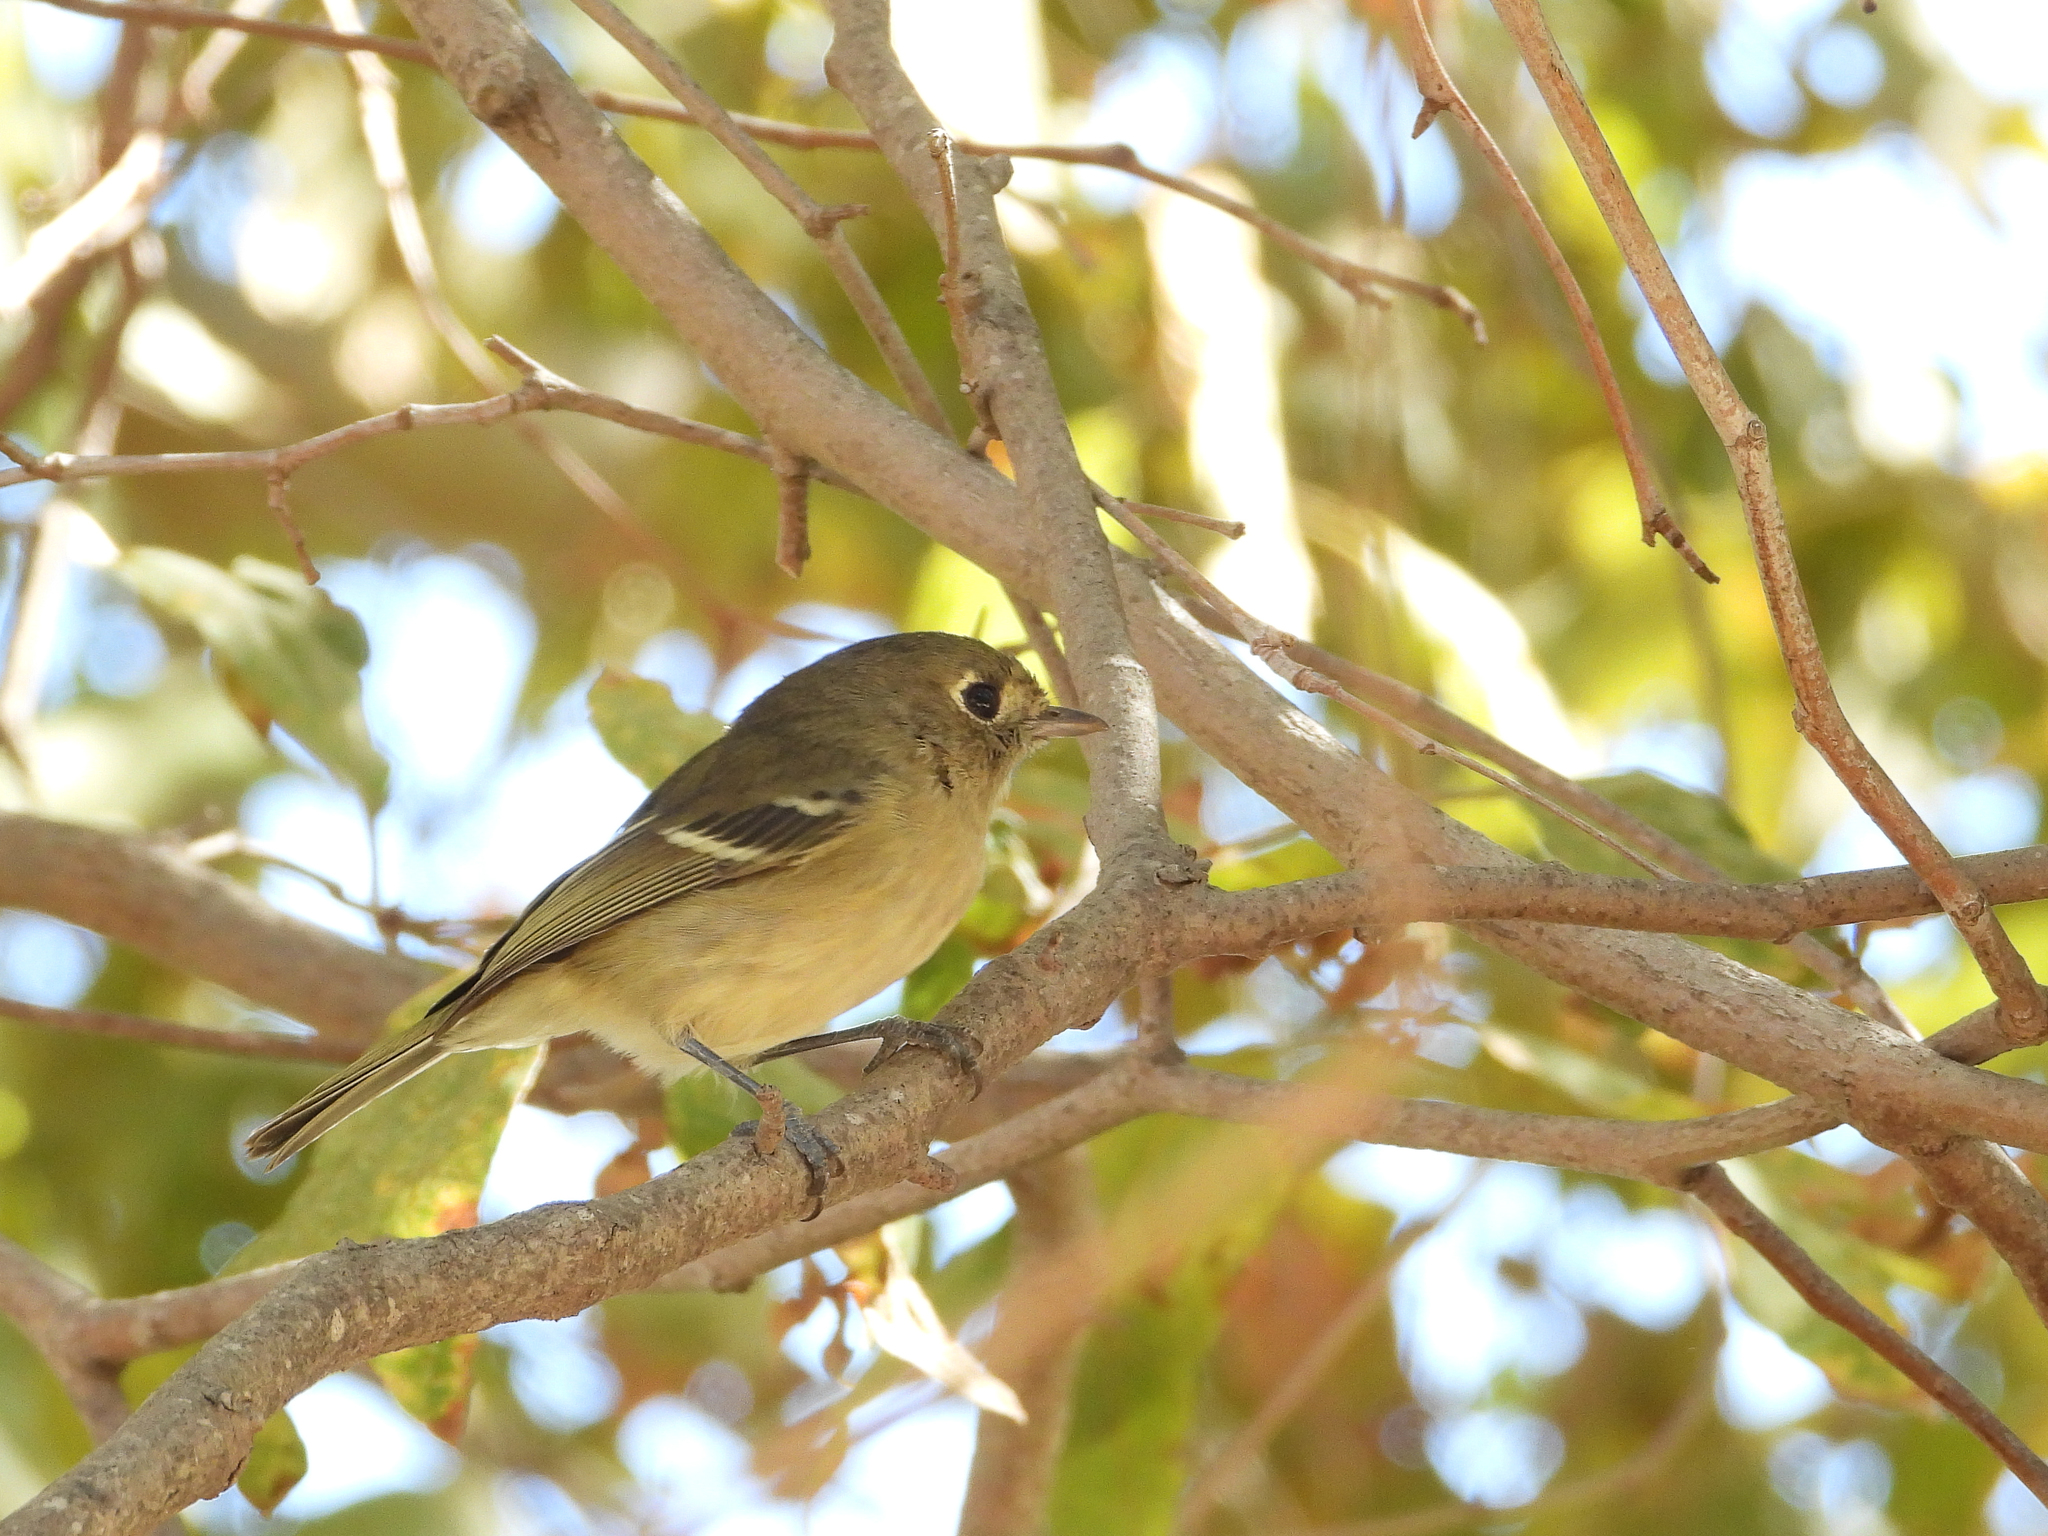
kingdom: Animalia
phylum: Chordata
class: Aves
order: Passeriformes
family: Vireonidae
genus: Vireo
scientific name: Vireo huttoni
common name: Hutton's vireo
